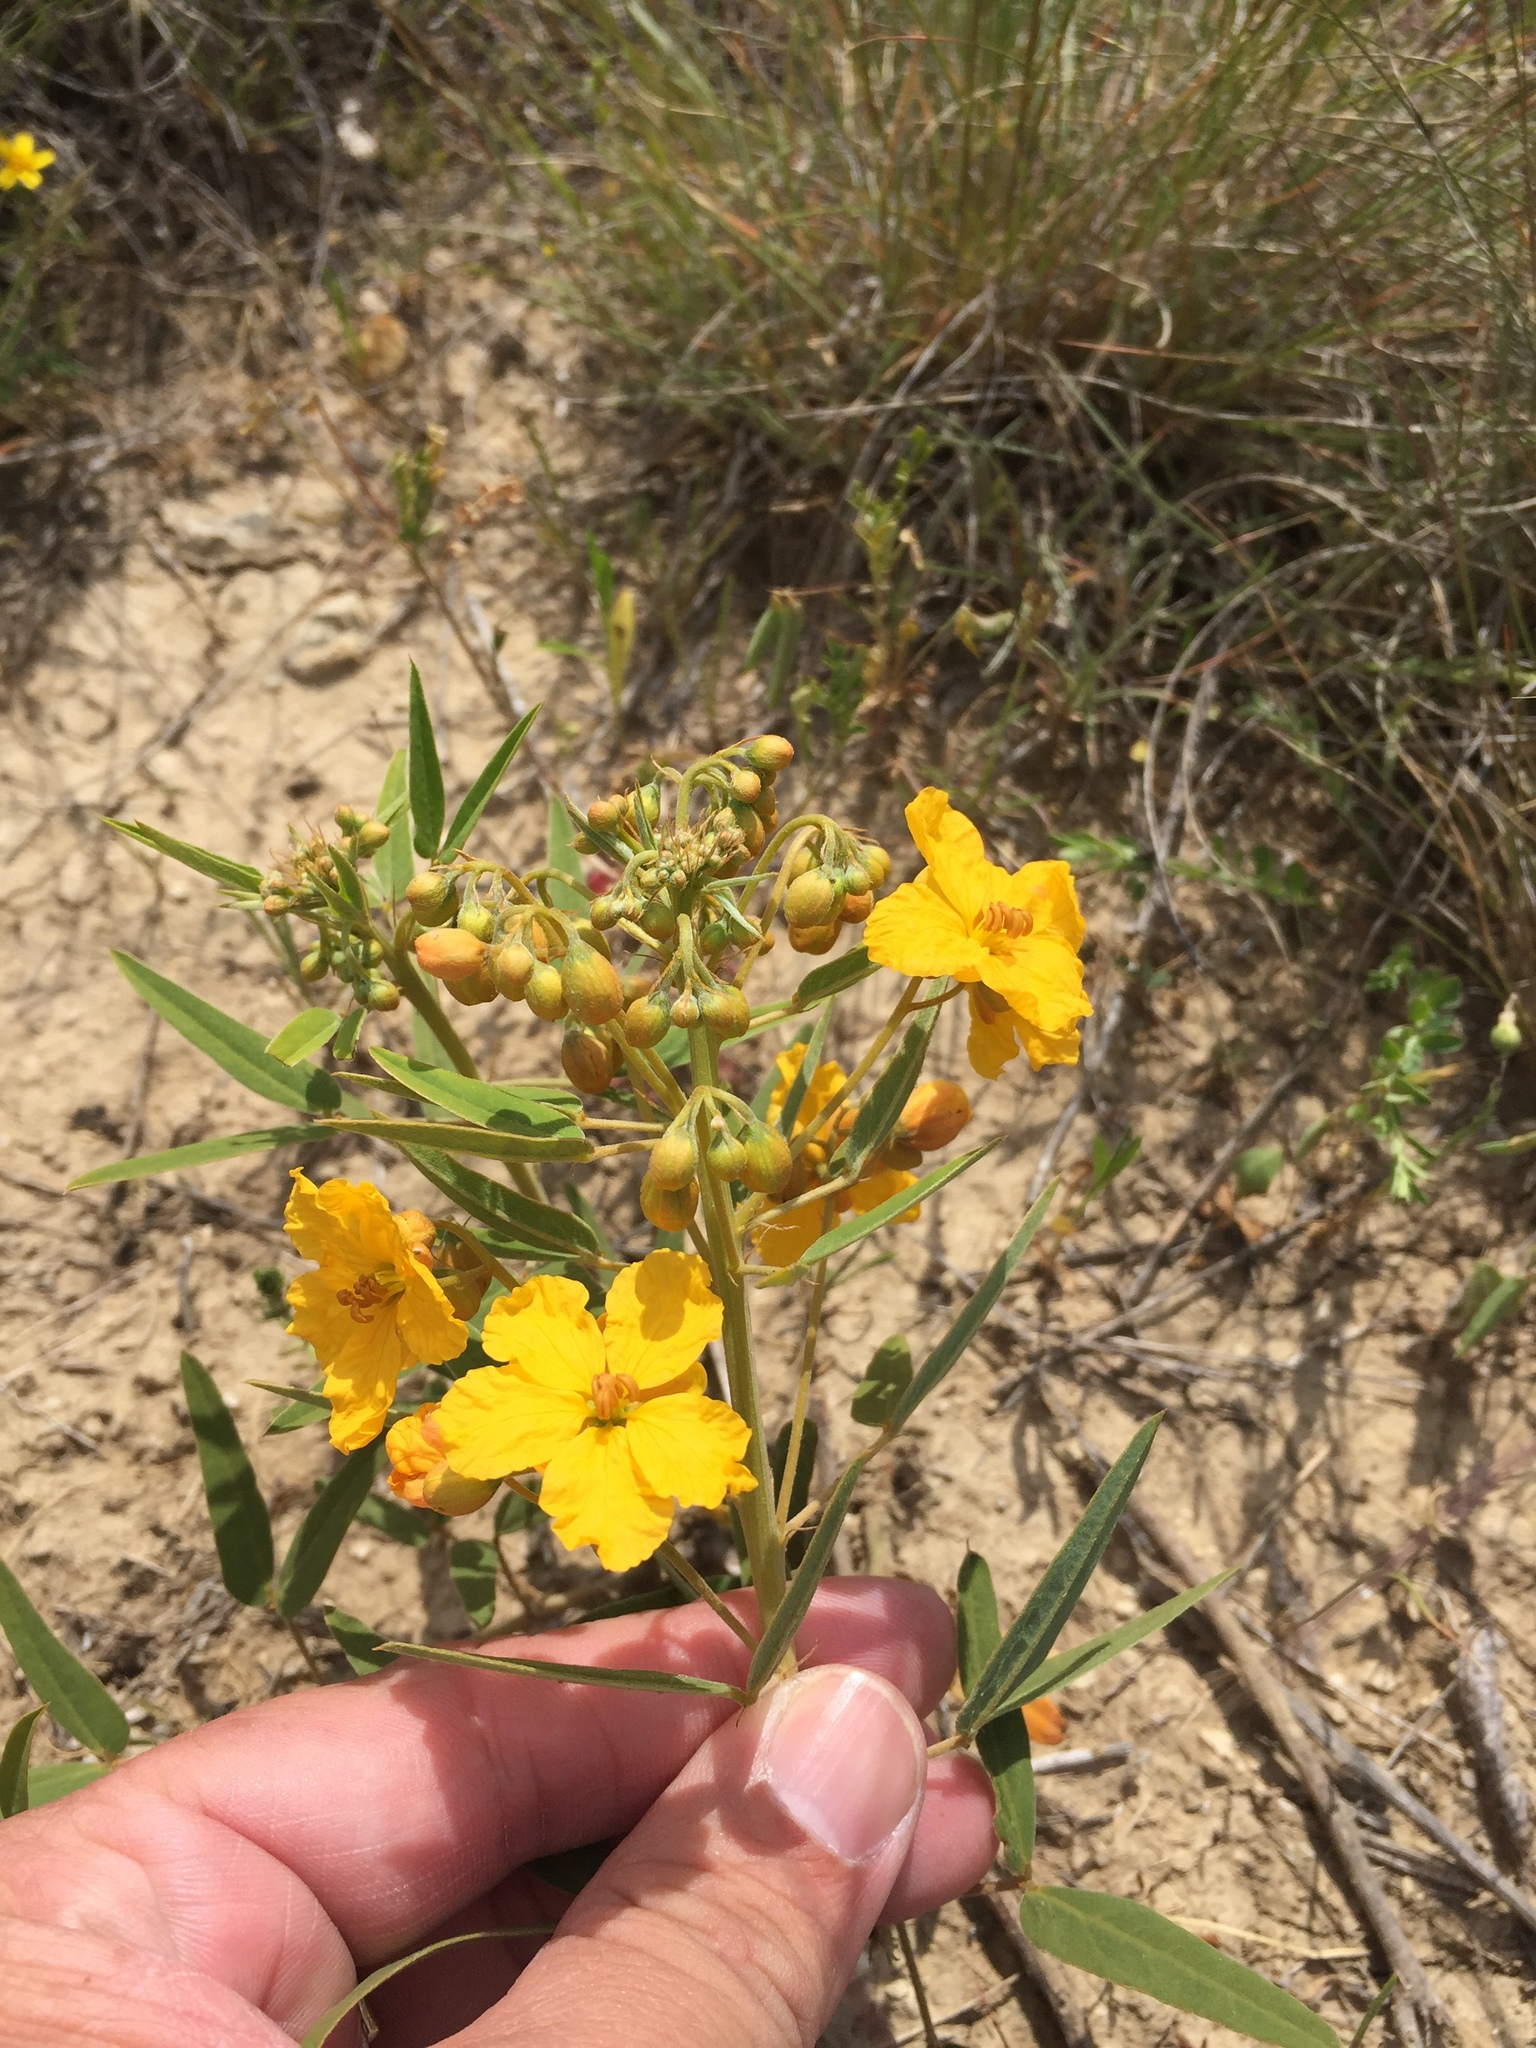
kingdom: Plantae
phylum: Tracheophyta
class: Magnoliopsida
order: Fabales
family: Fabaceae
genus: Senna
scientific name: Senna roemeriana
